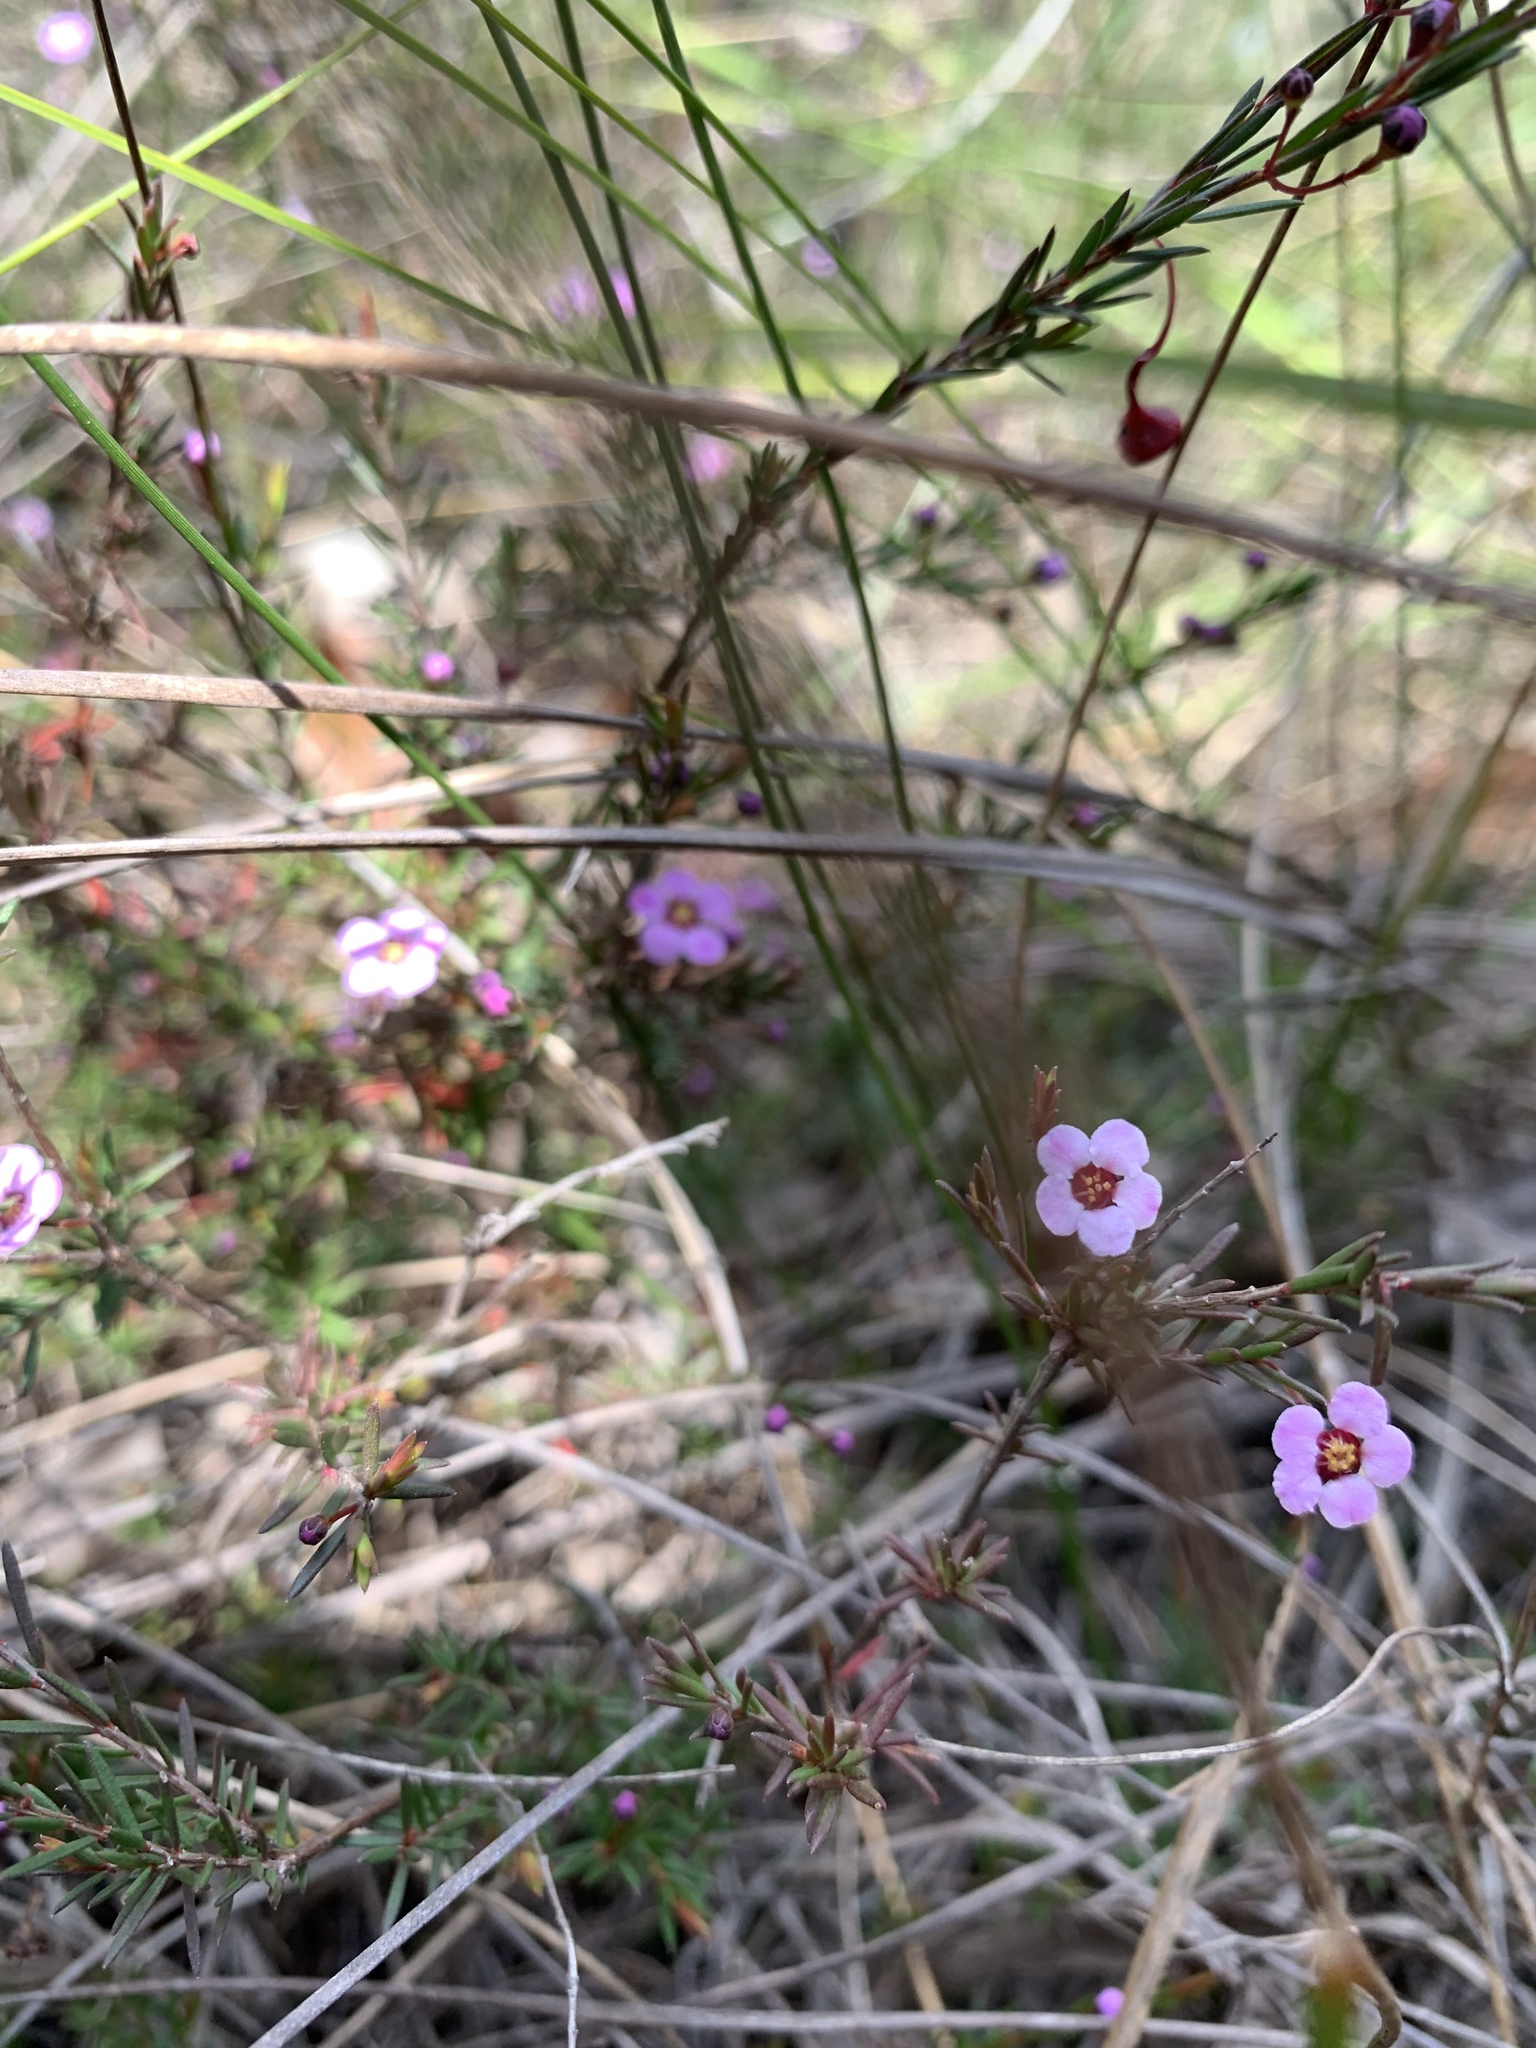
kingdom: Plantae
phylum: Tracheophyta
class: Magnoliopsida
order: Myrtales
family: Myrtaceae
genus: Euryomyrtus
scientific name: Euryomyrtus ramosissima
